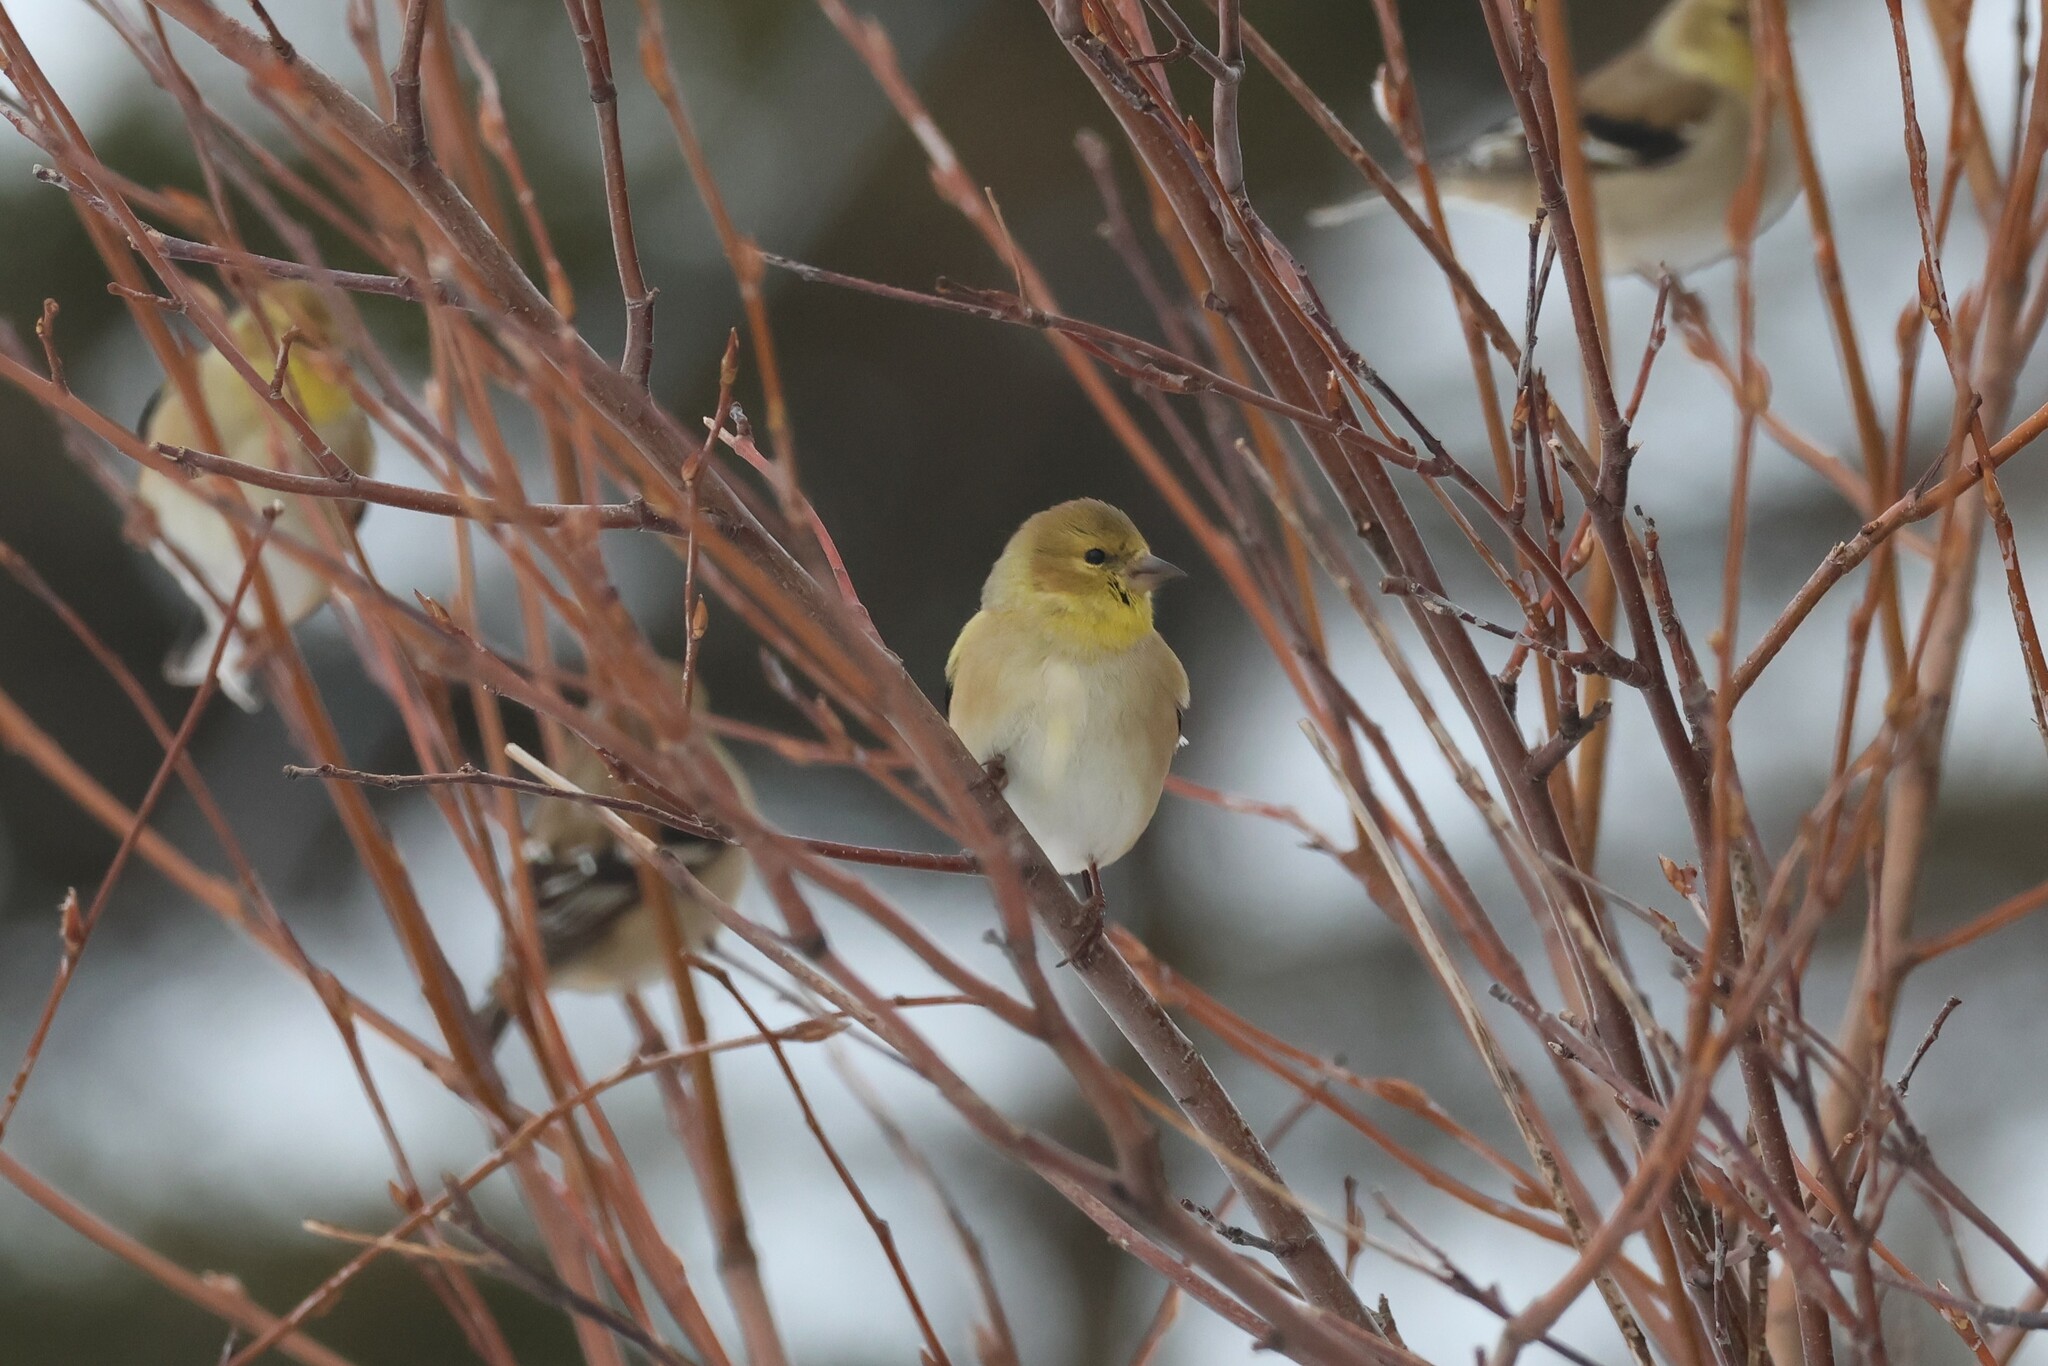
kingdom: Animalia
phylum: Chordata
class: Aves
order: Passeriformes
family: Fringillidae
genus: Spinus
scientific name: Spinus tristis
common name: American goldfinch
